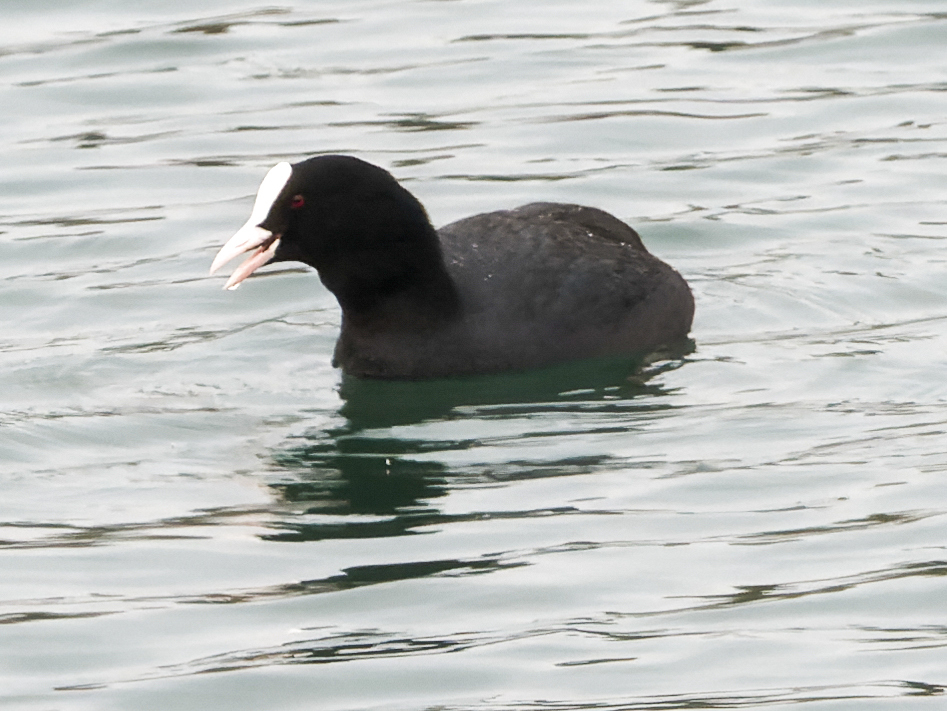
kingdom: Animalia
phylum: Chordata
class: Aves
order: Gruiformes
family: Rallidae
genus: Fulica
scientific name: Fulica atra
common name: Eurasian coot
